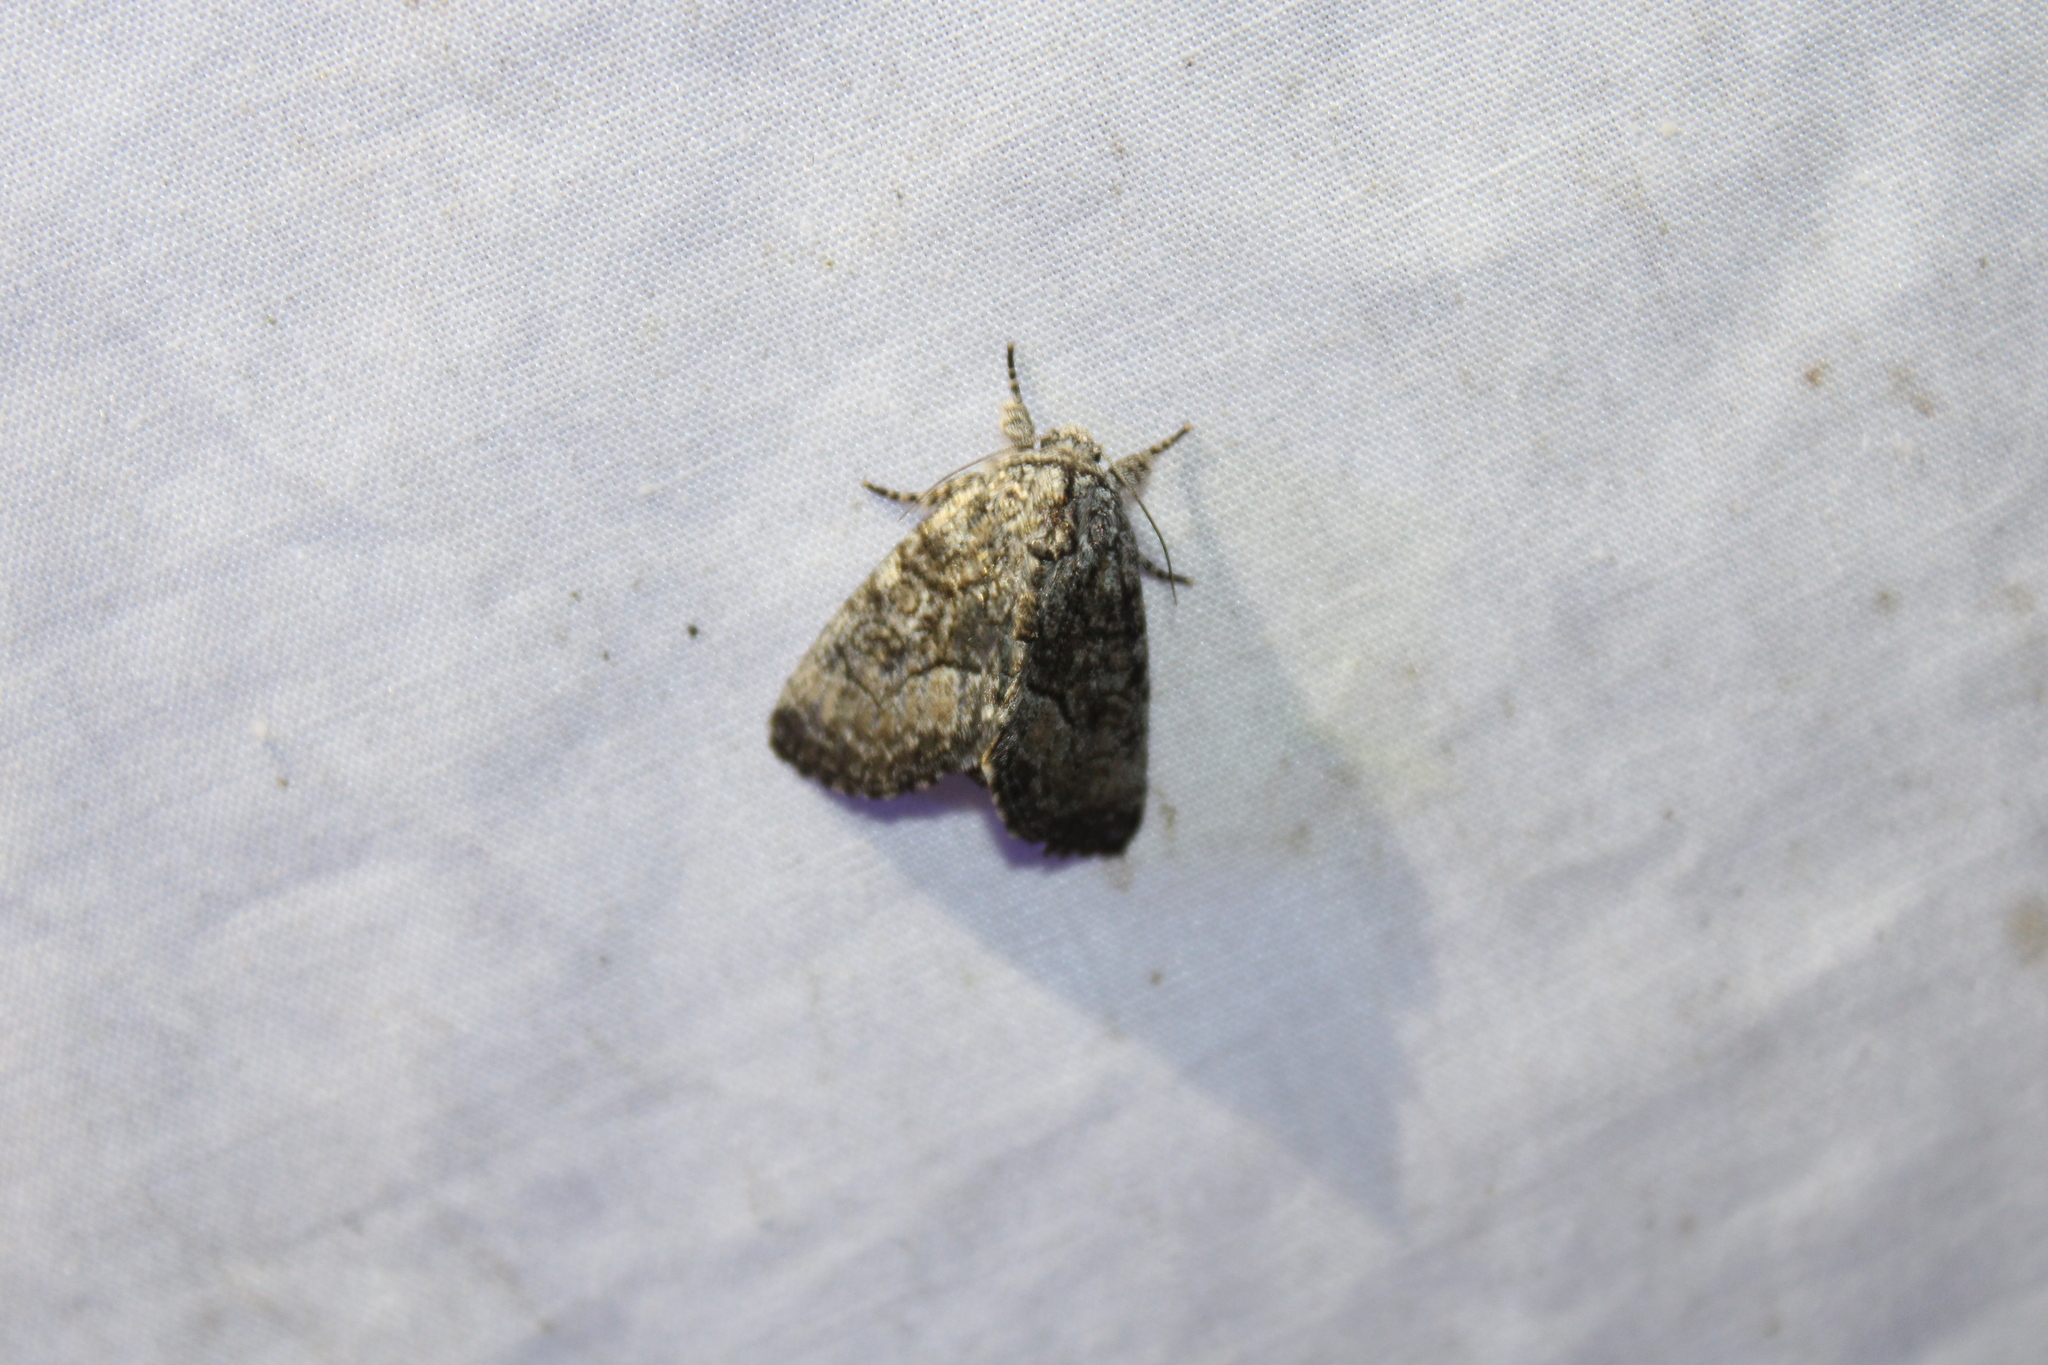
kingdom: Animalia
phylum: Arthropoda
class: Insecta
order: Lepidoptera
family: Noctuidae
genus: Raphia
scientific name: Raphia frater
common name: Brother
